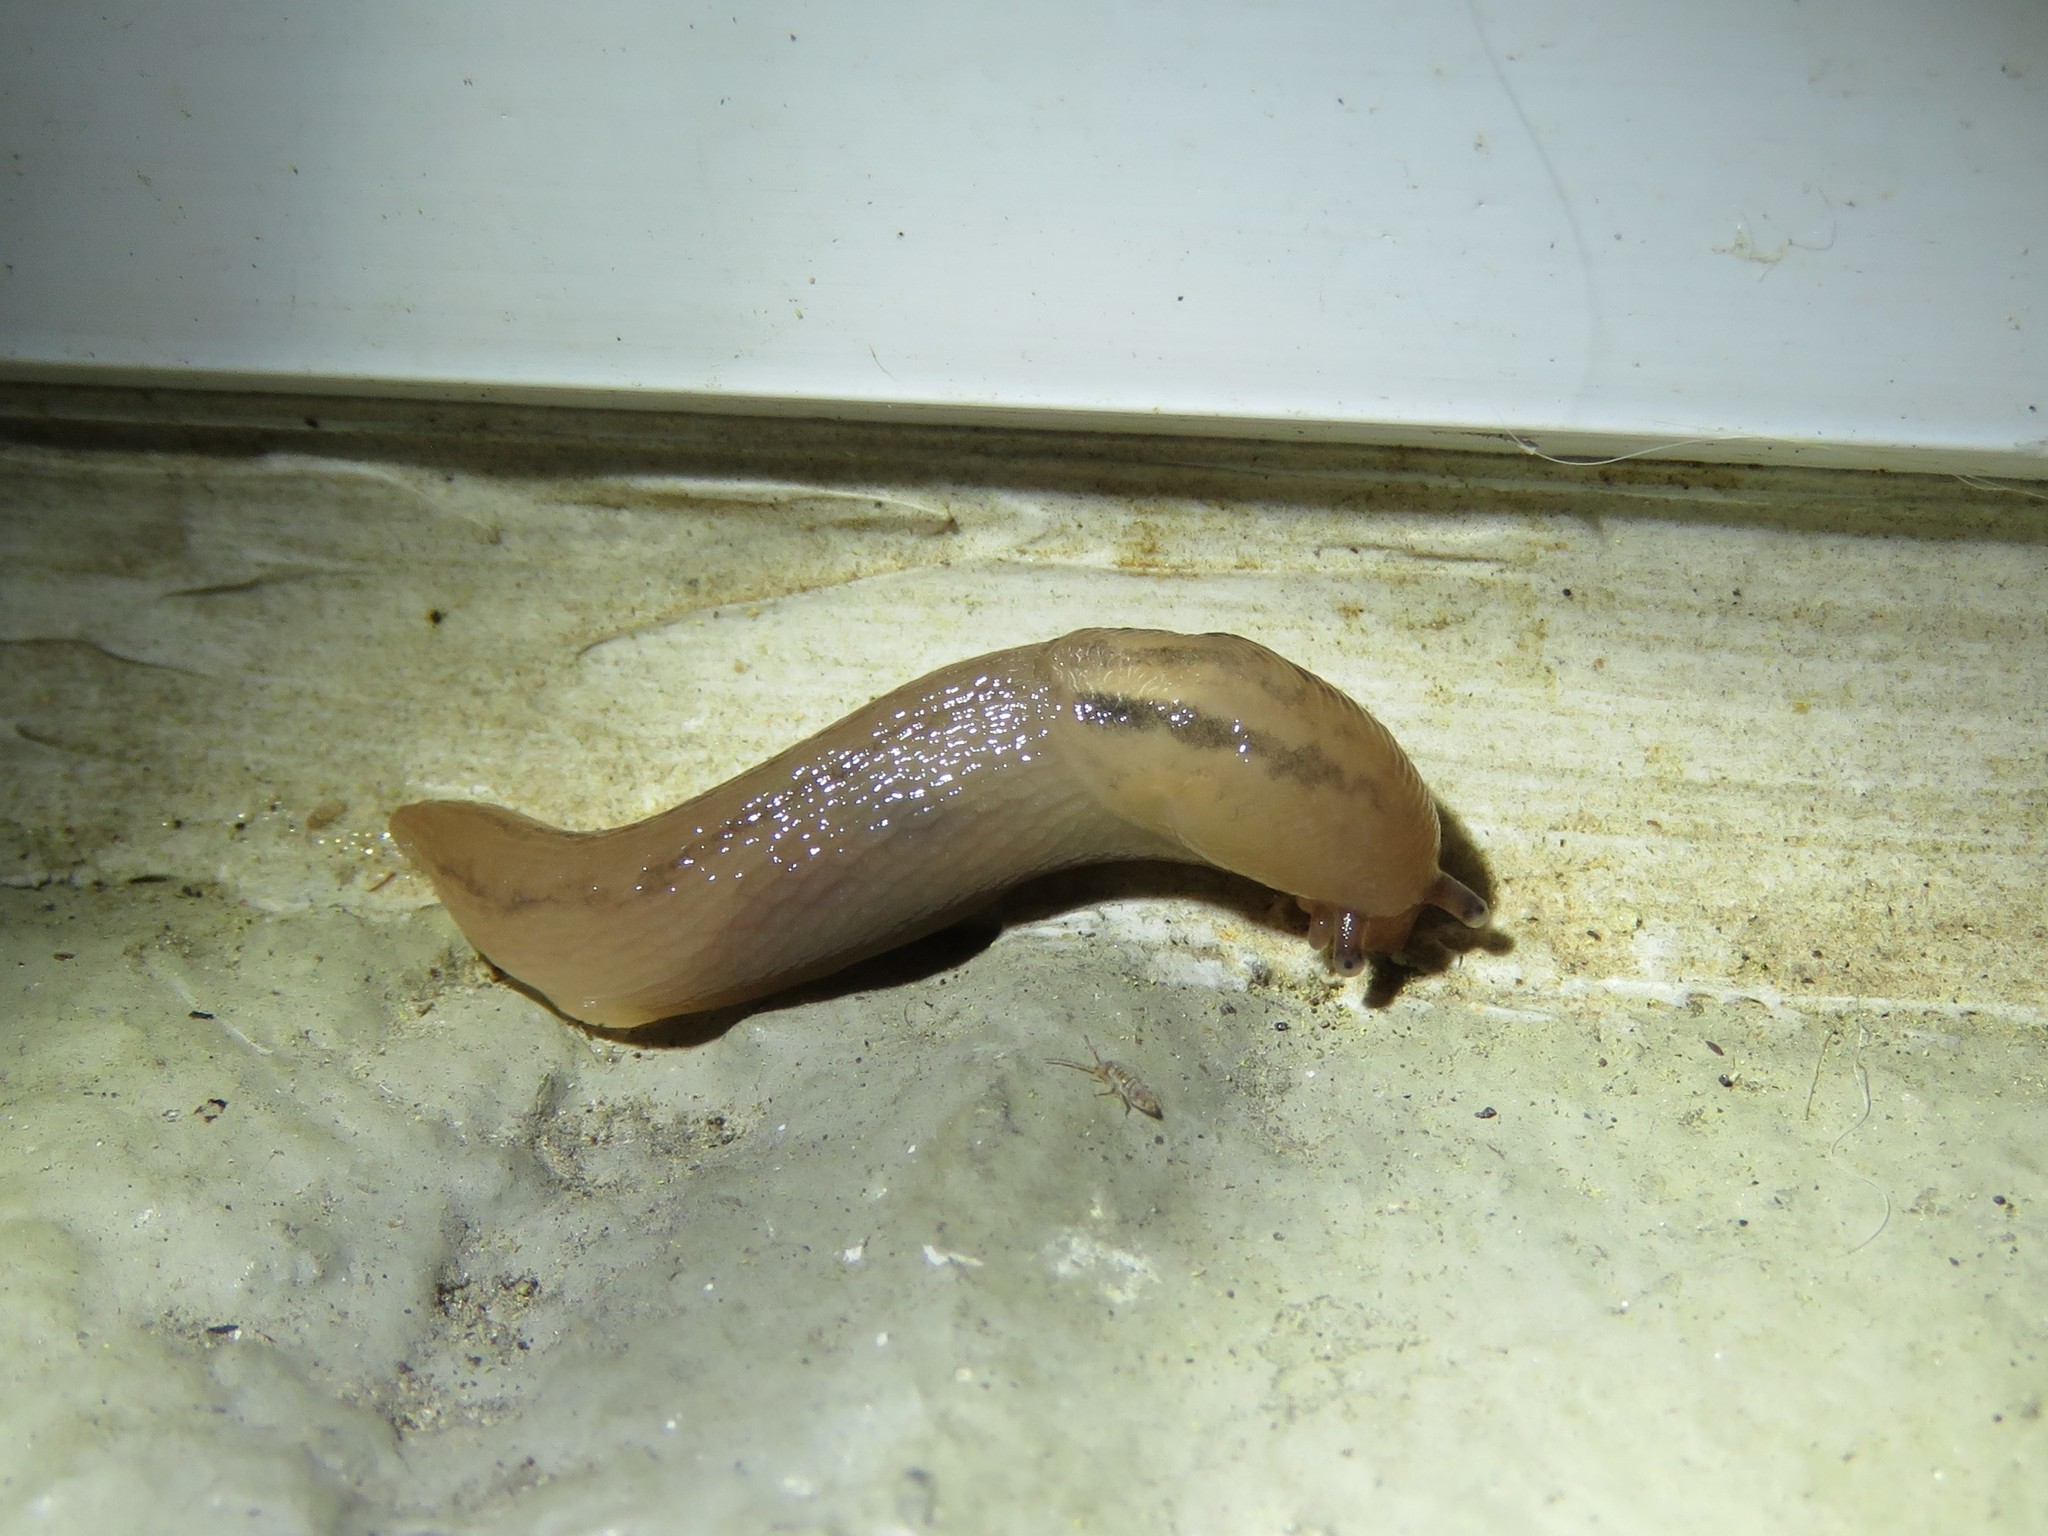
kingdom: Animalia
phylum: Mollusca
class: Gastropoda
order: Stylommatophora
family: Limacidae
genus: Ambigolimax
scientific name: Ambigolimax valentianus
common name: Greenhouse slug
